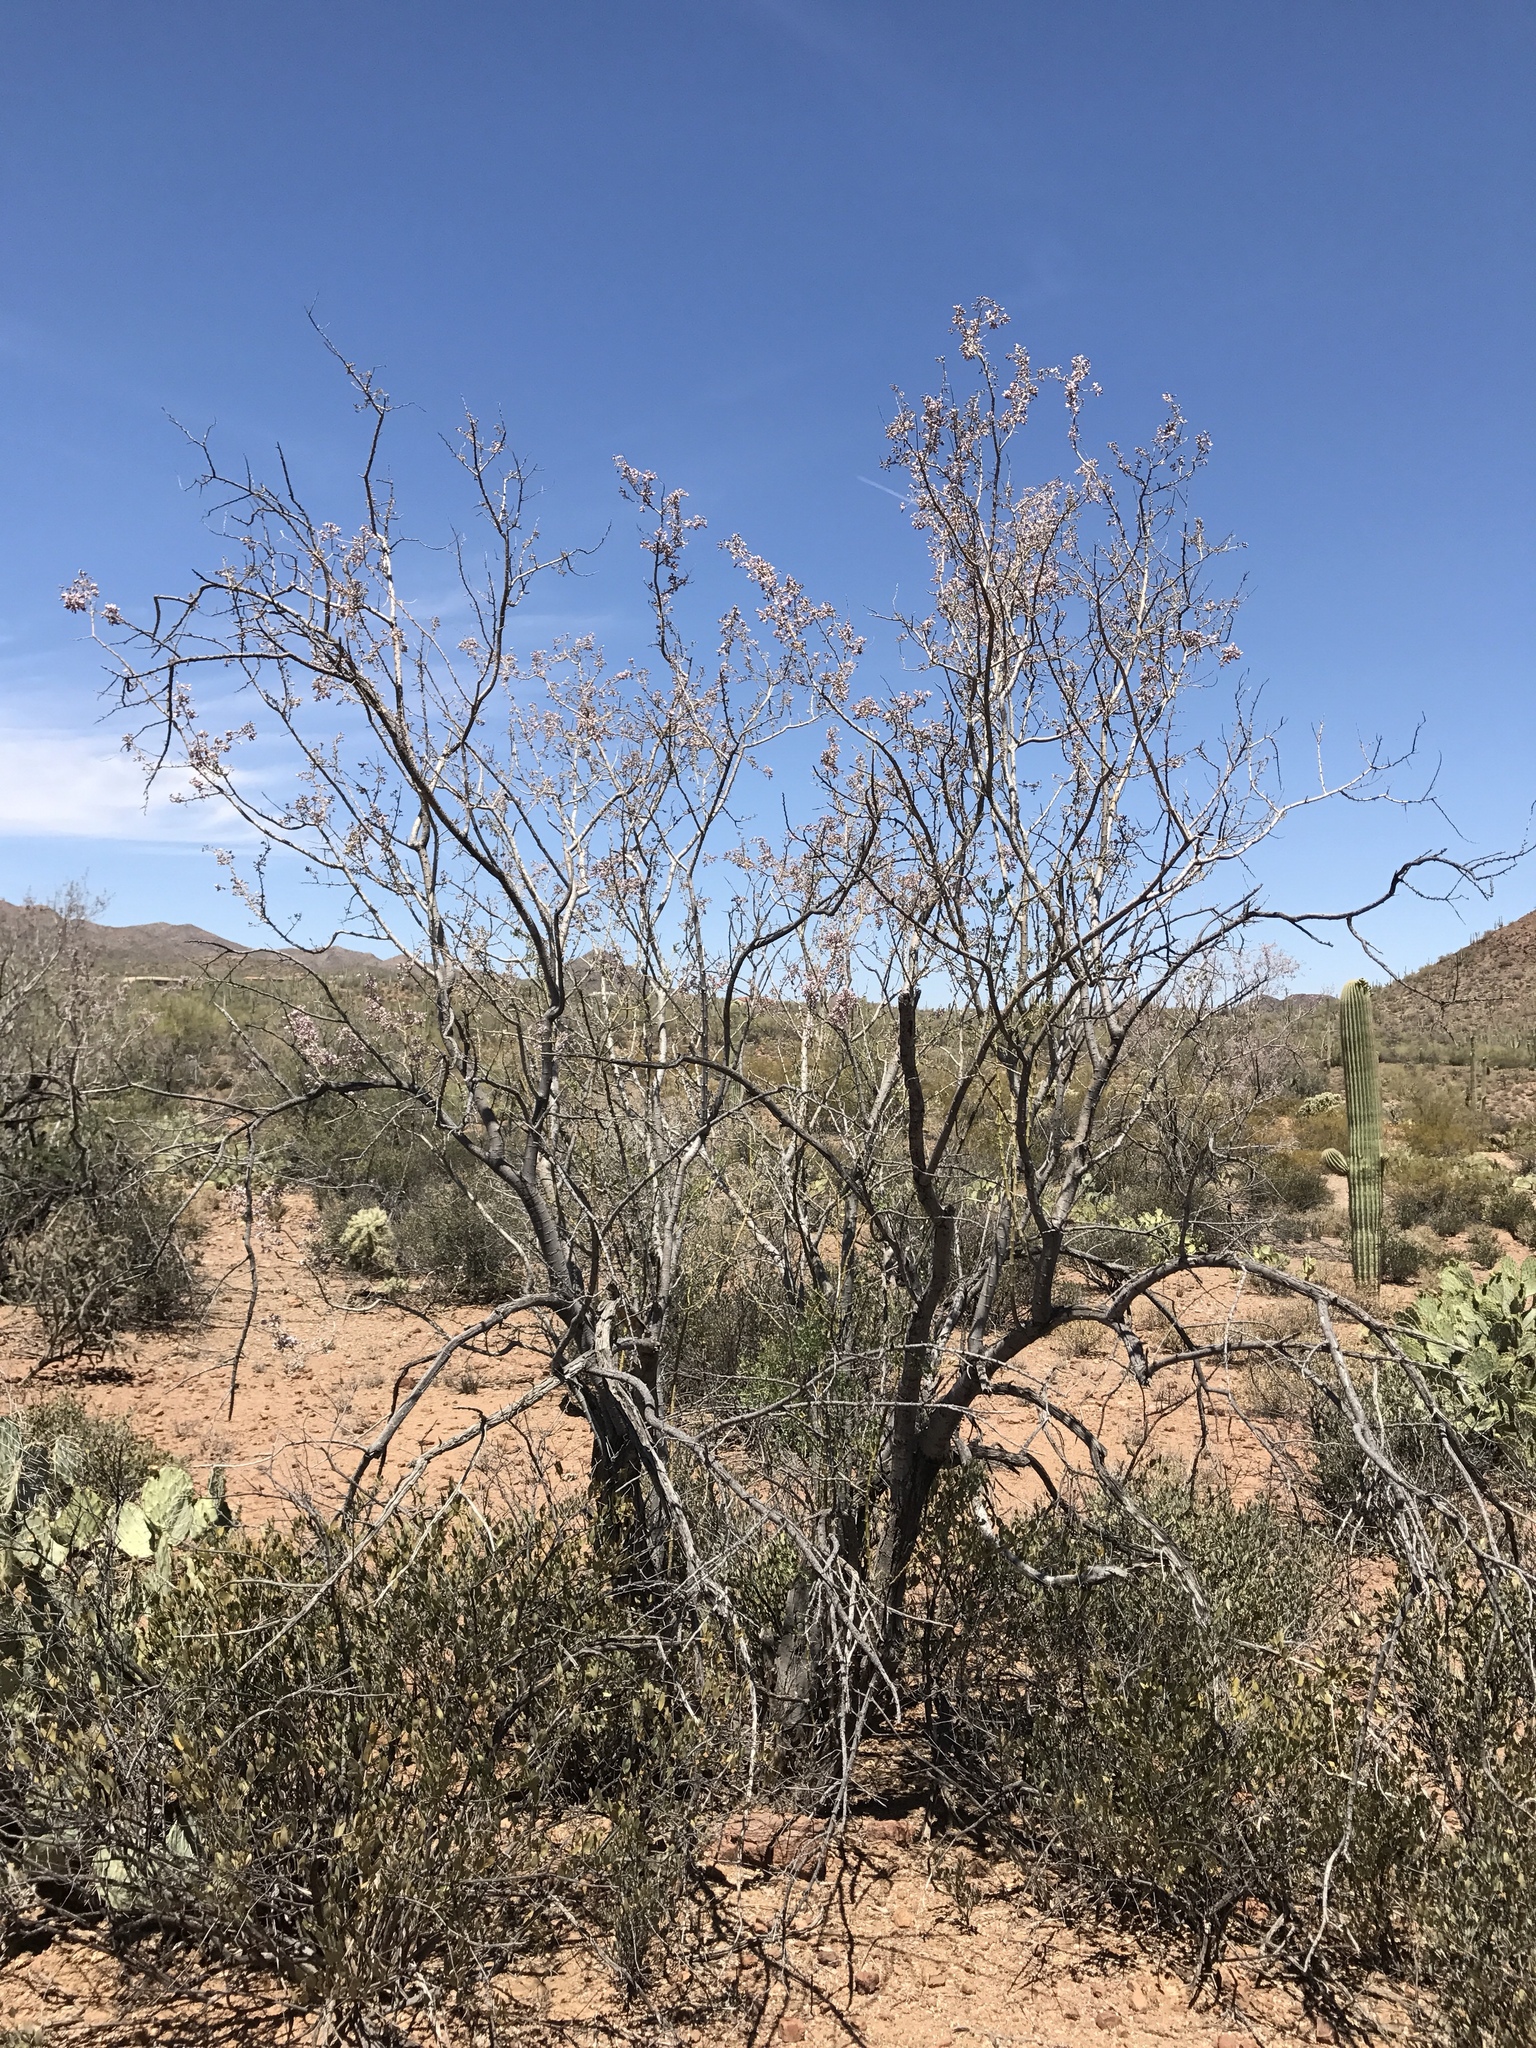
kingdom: Plantae
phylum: Tracheophyta
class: Magnoliopsida
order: Fabales
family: Fabaceae
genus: Olneya
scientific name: Olneya tesota
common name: Desert ironwood
